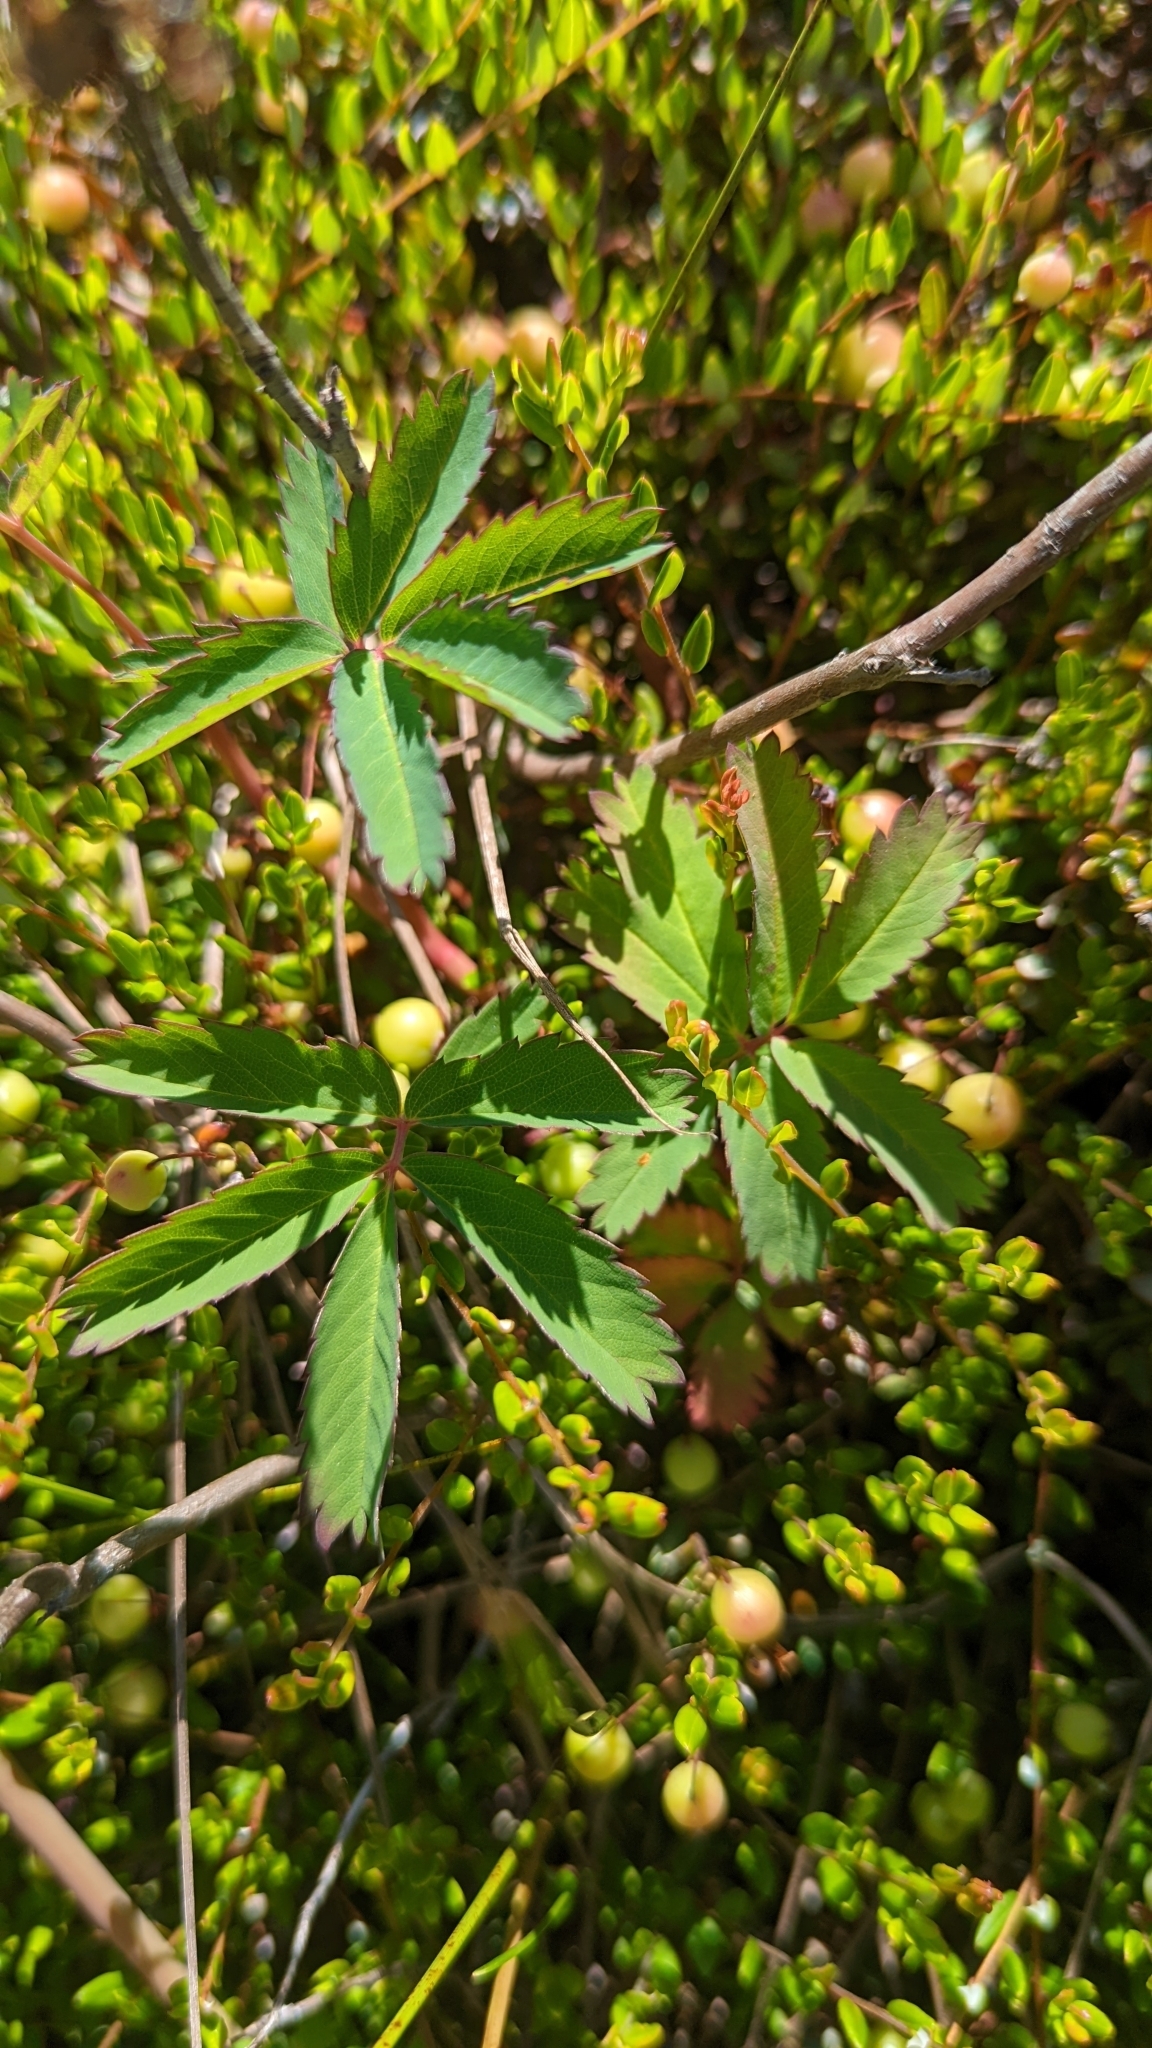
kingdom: Plantae
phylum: Tracheophyta
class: Magnoliopsida
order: Rosales
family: Rosaceae
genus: Comarum
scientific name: Comarum palustre
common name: Marsh cinquefoil
